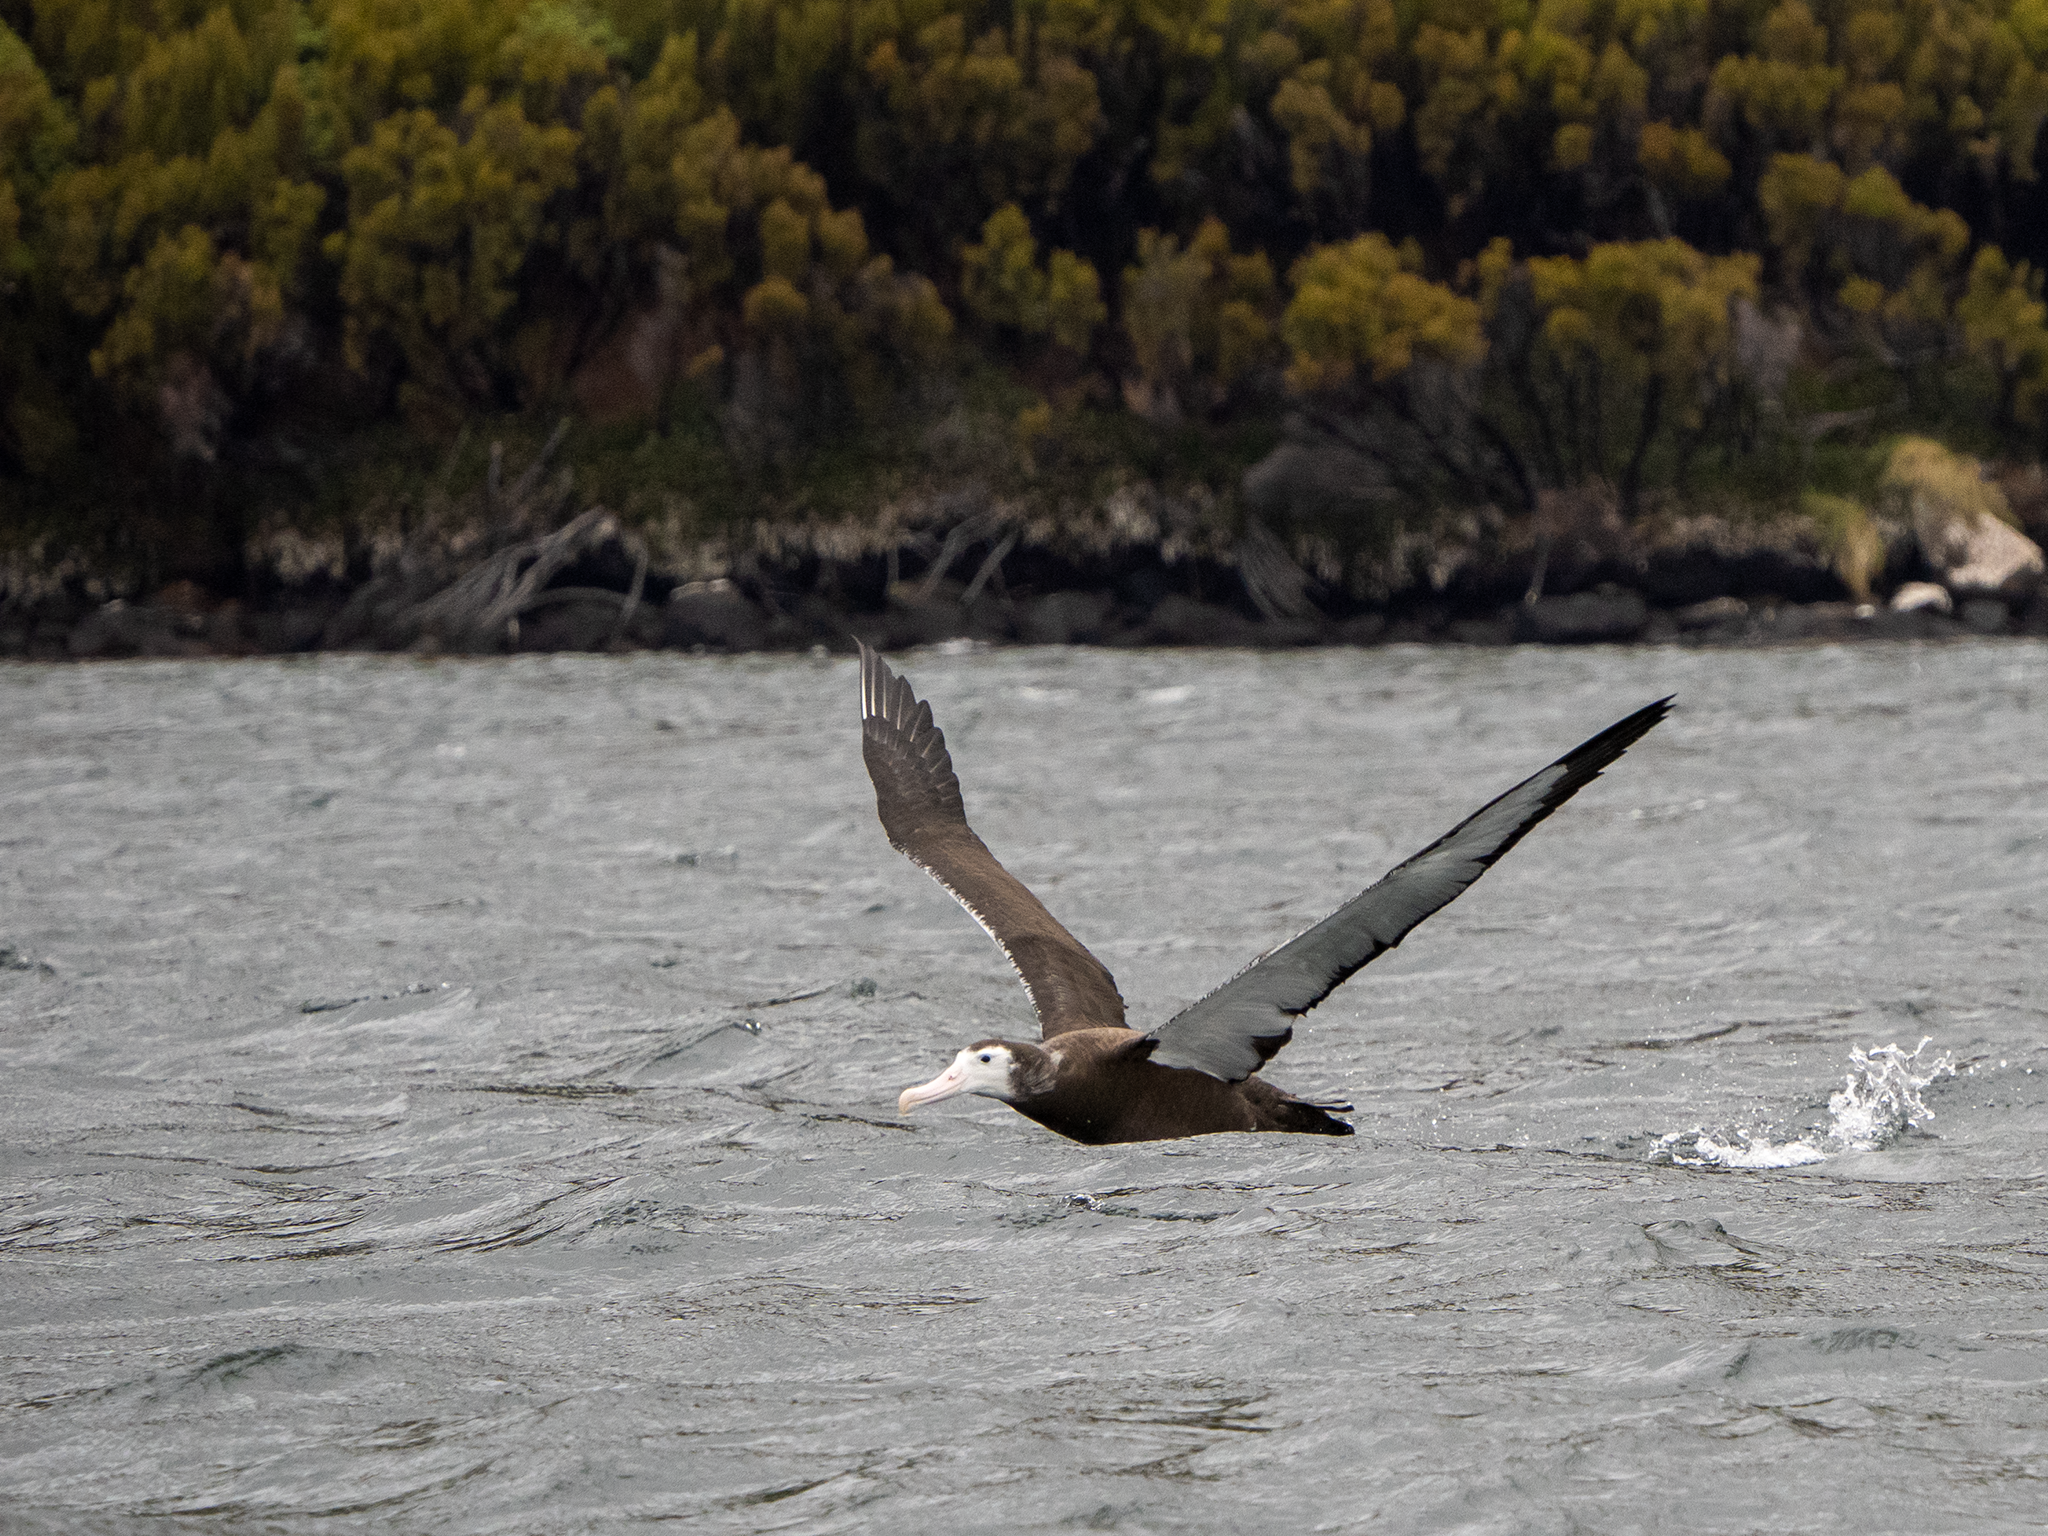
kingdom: Animalia
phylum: Chordata
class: Aves
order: Procellariiformes
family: Diomedeidae
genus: Diomedea
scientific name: Diomedea antipodensis
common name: Antipodean albatross
